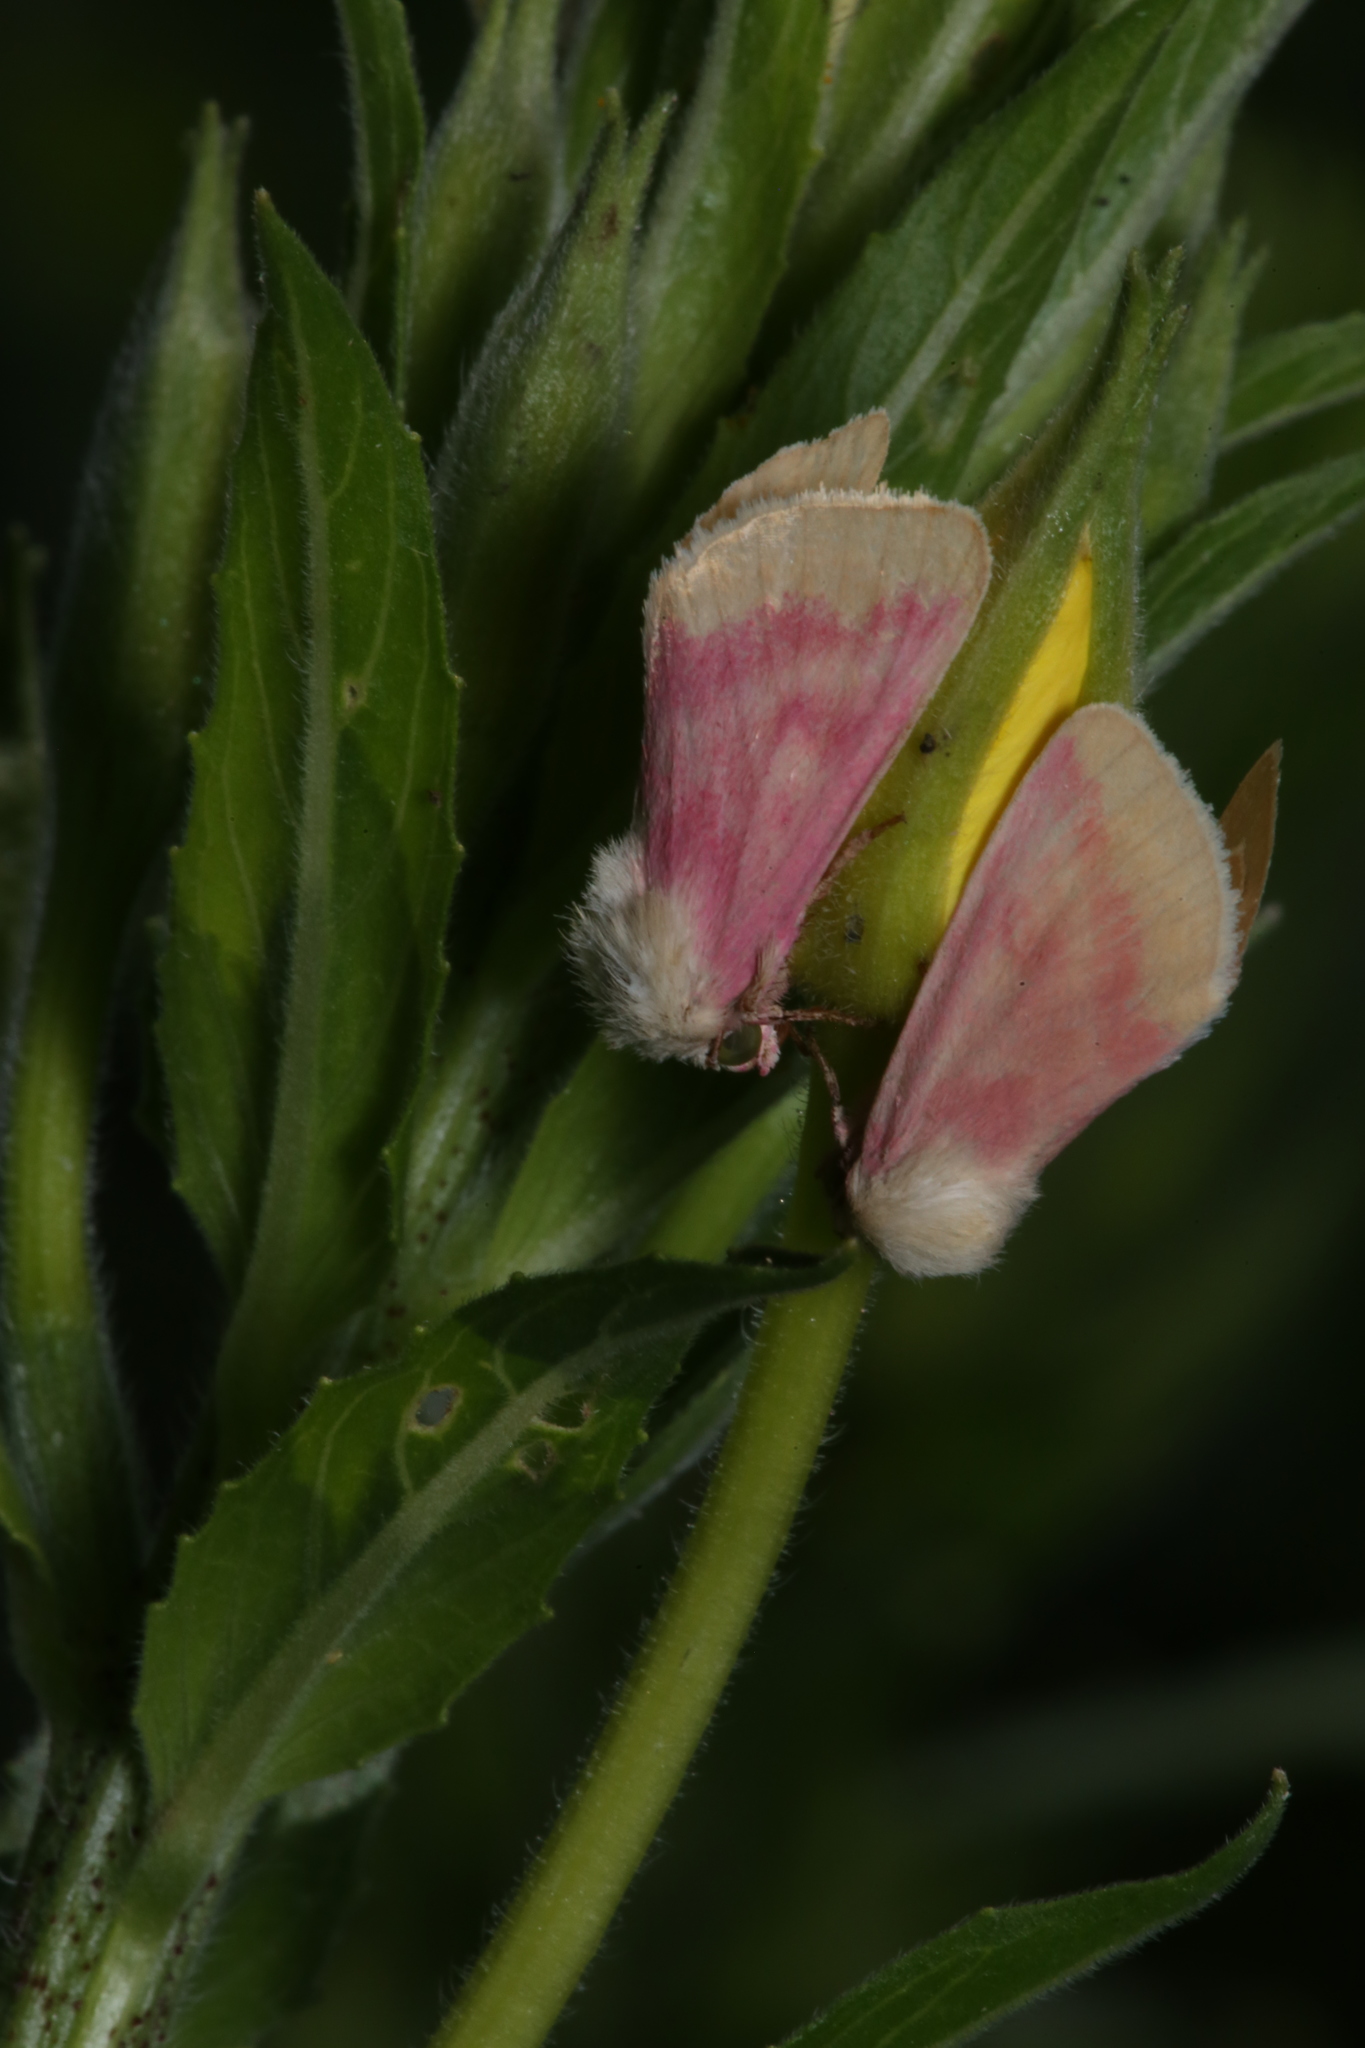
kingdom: Animalia
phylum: Arthropoda
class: Insecta
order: Lepidoptera
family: Noctuidae
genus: Schinia
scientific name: Schinia florida
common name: Primrose moth
